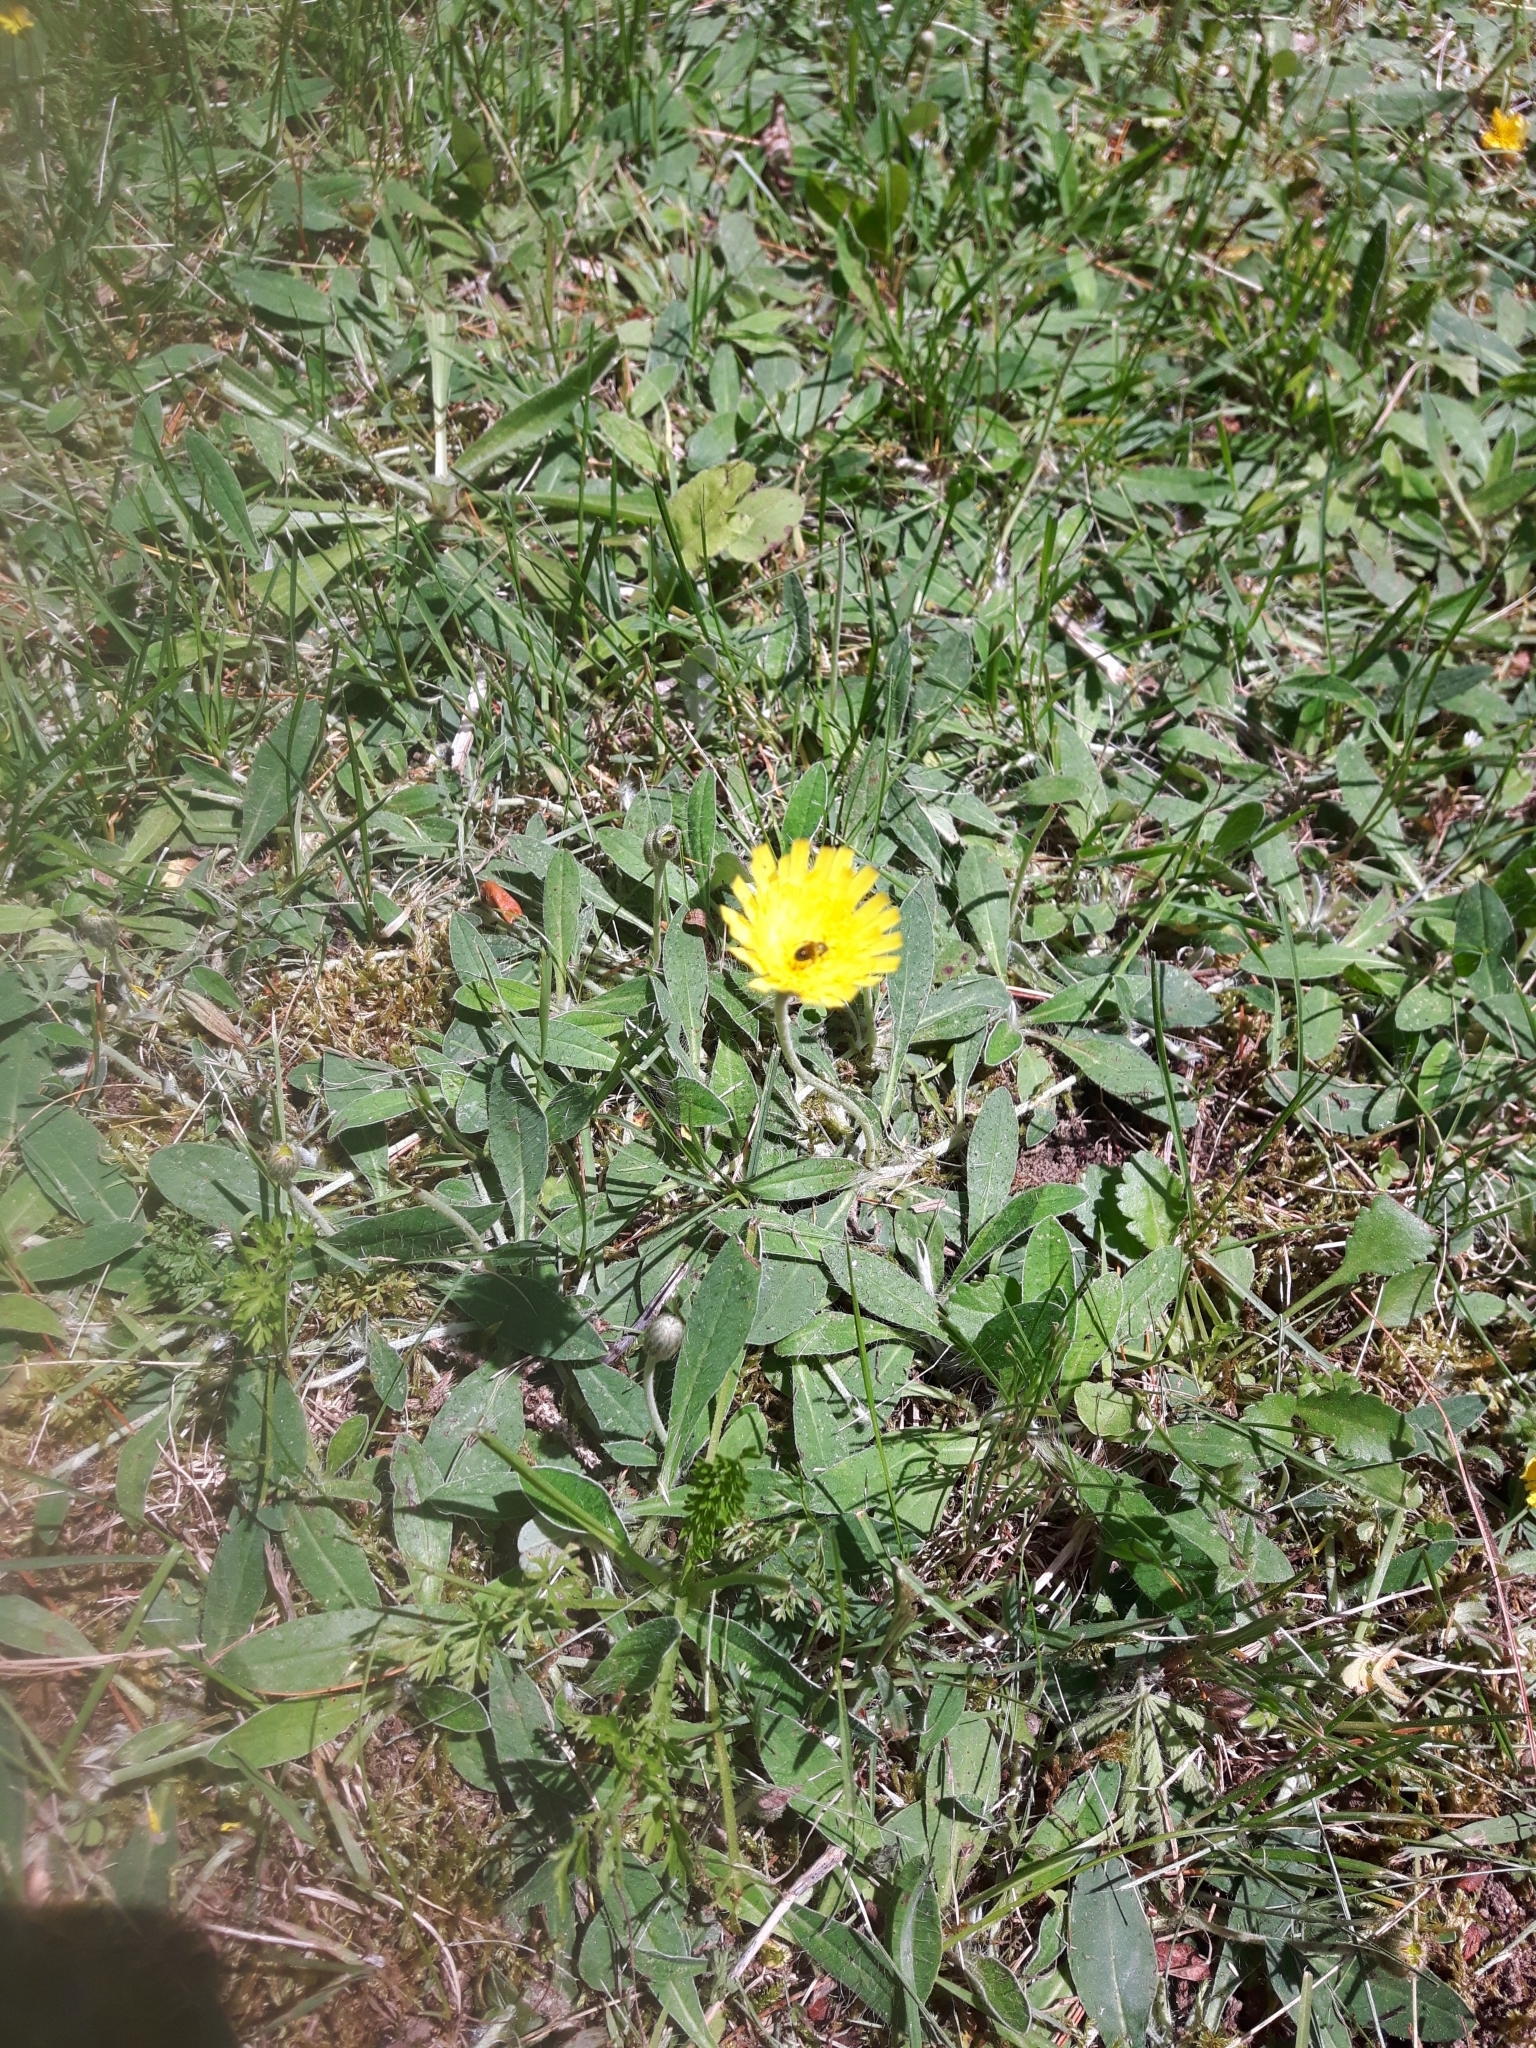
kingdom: Plantae
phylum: Tracheophyta
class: Magnoliopsida
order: Asterales
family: Asteraceae
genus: Pilosella
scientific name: Pilosella officinarum
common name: Mouse-ear hawkweed
